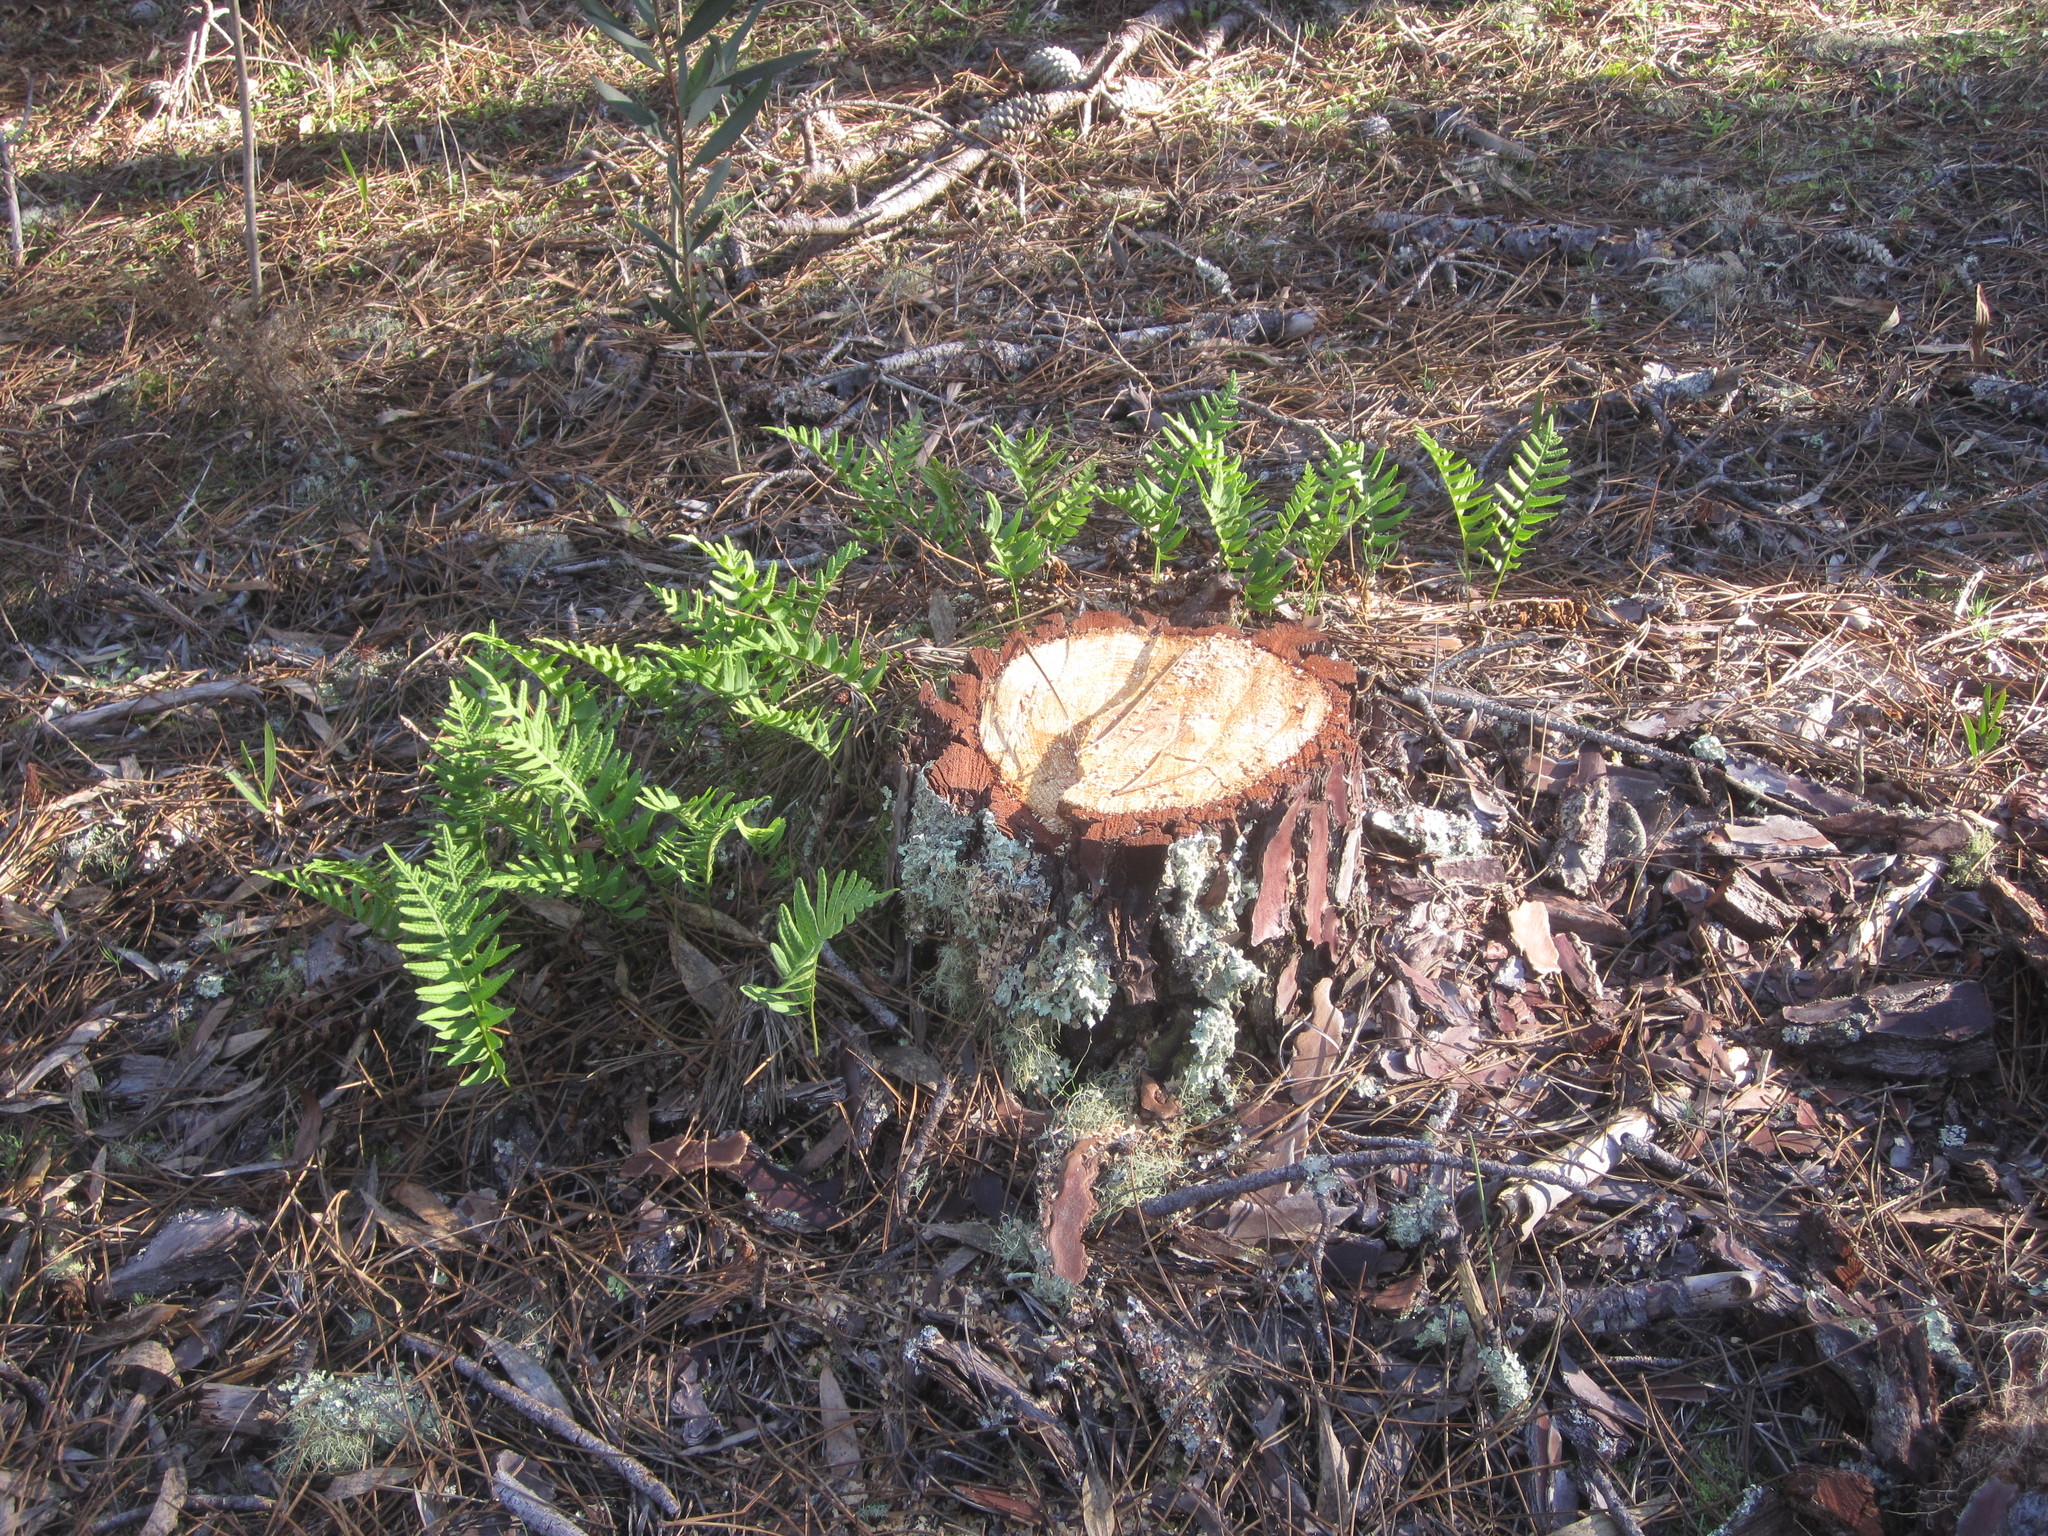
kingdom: Plantae
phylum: Tracheophyta
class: Polypodiopsida
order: Polypodiales
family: Polypodiaceae
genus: Polypodium
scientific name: Polypodium cambricum
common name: Southern polypody
